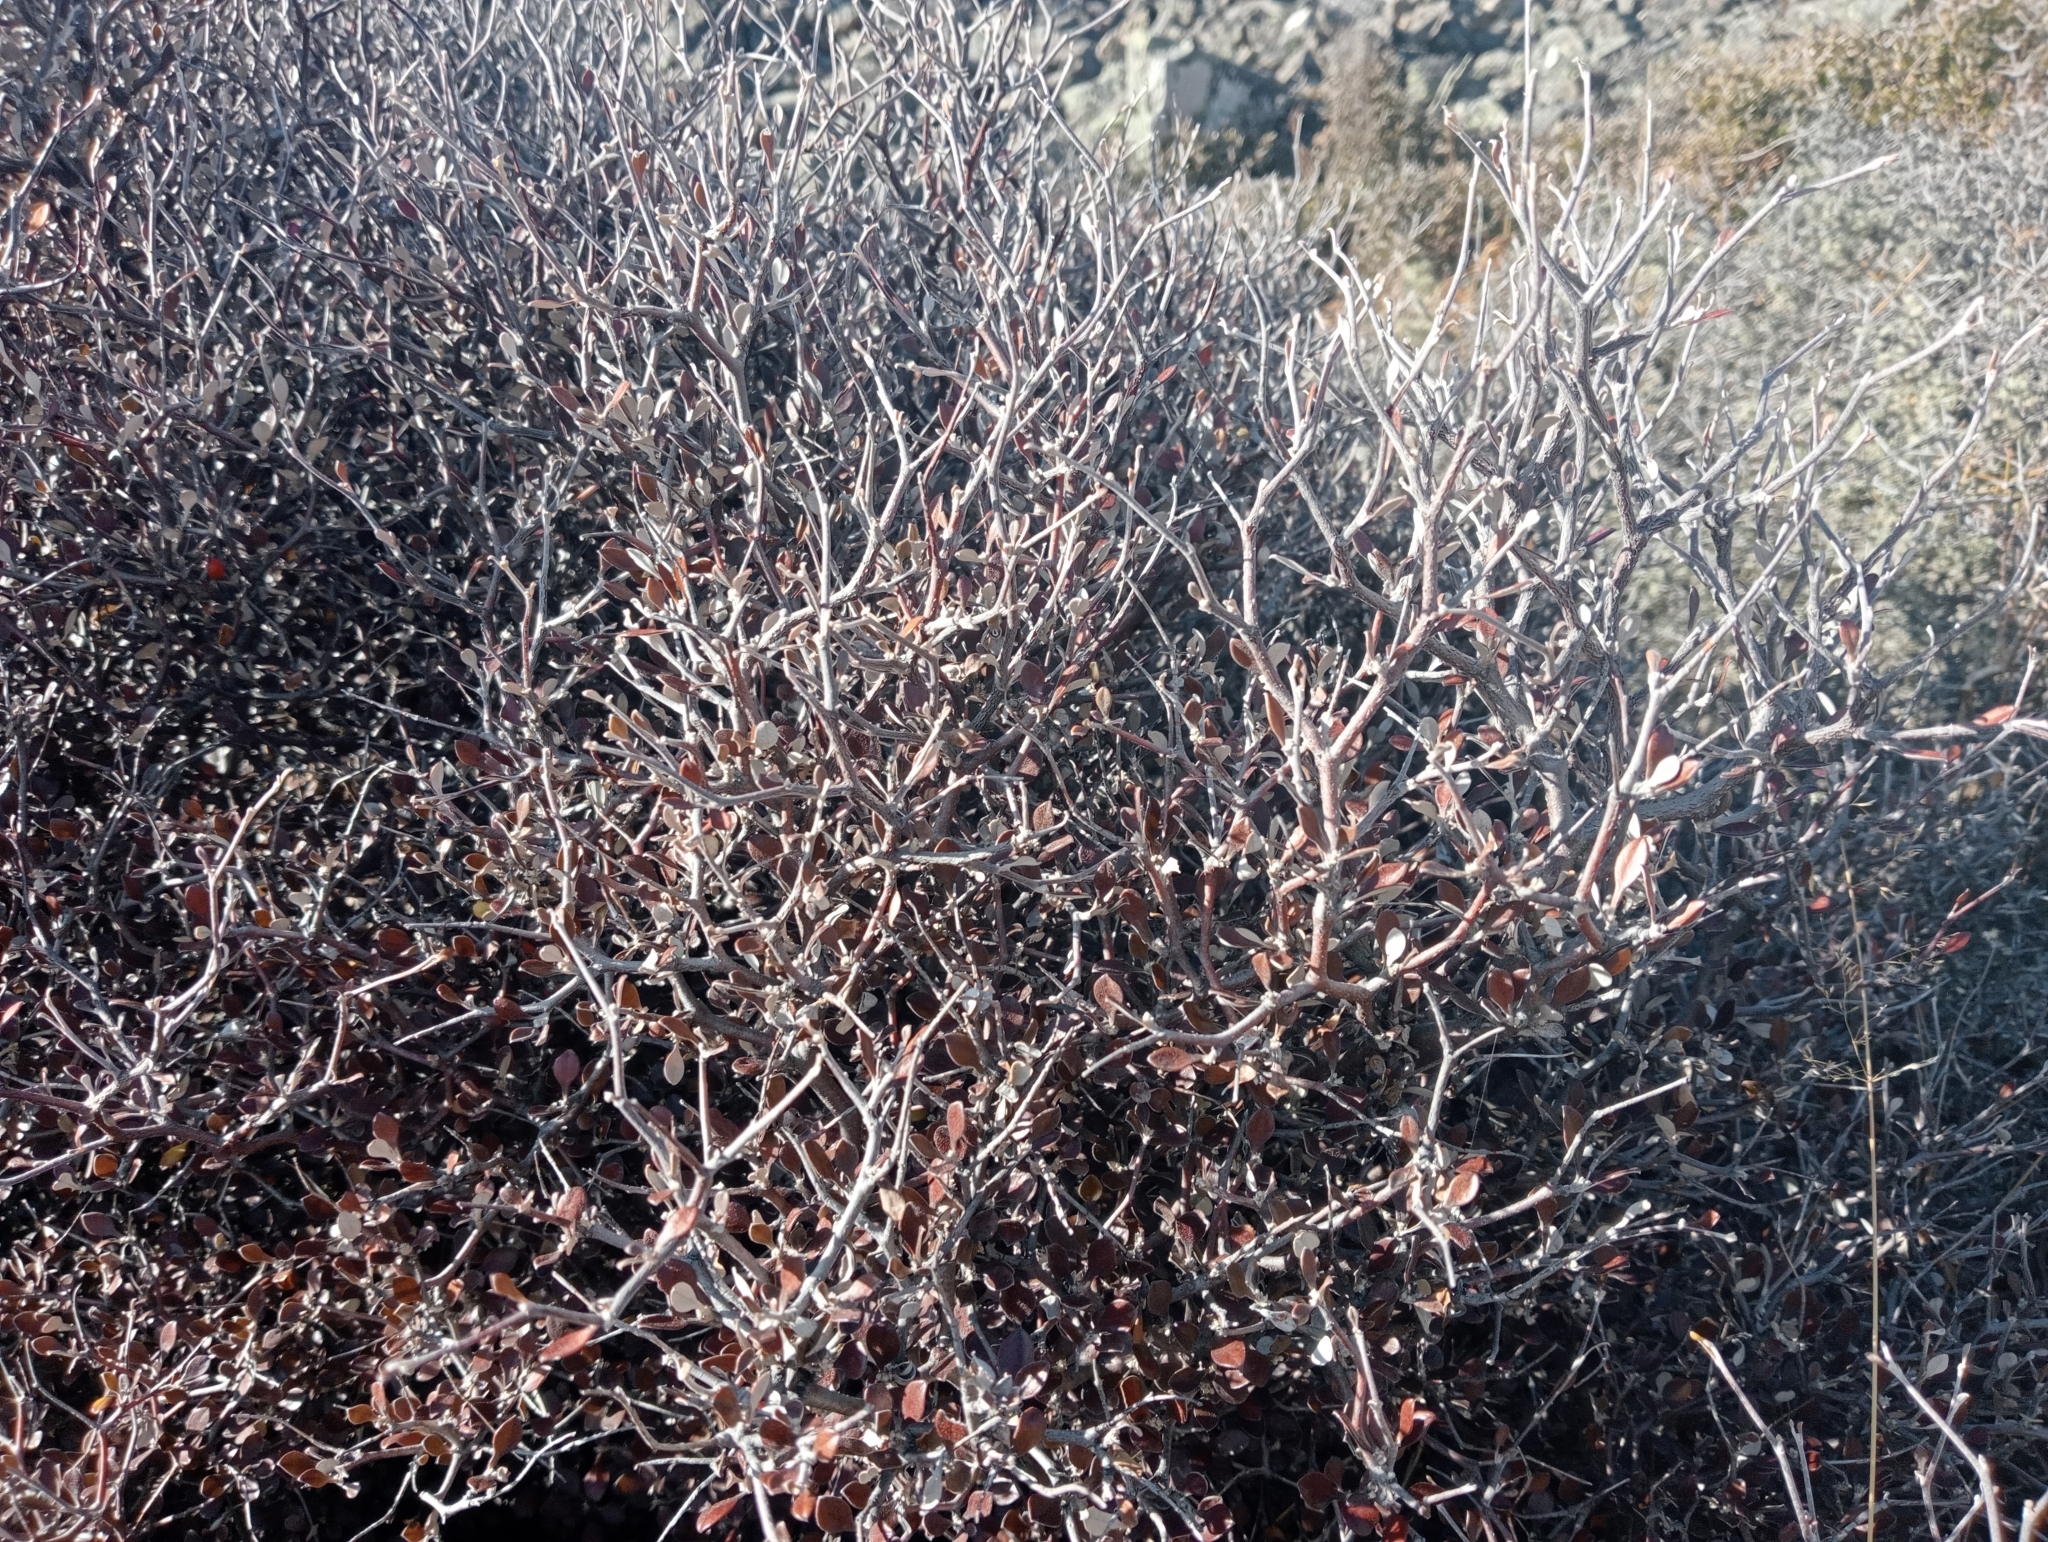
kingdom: Plantae
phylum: Tracheophyta
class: Magnoliopsida
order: Asterales
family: Argophyllaceae
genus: Corokia
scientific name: Corokia cotoneaster
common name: Wire nettingbush
